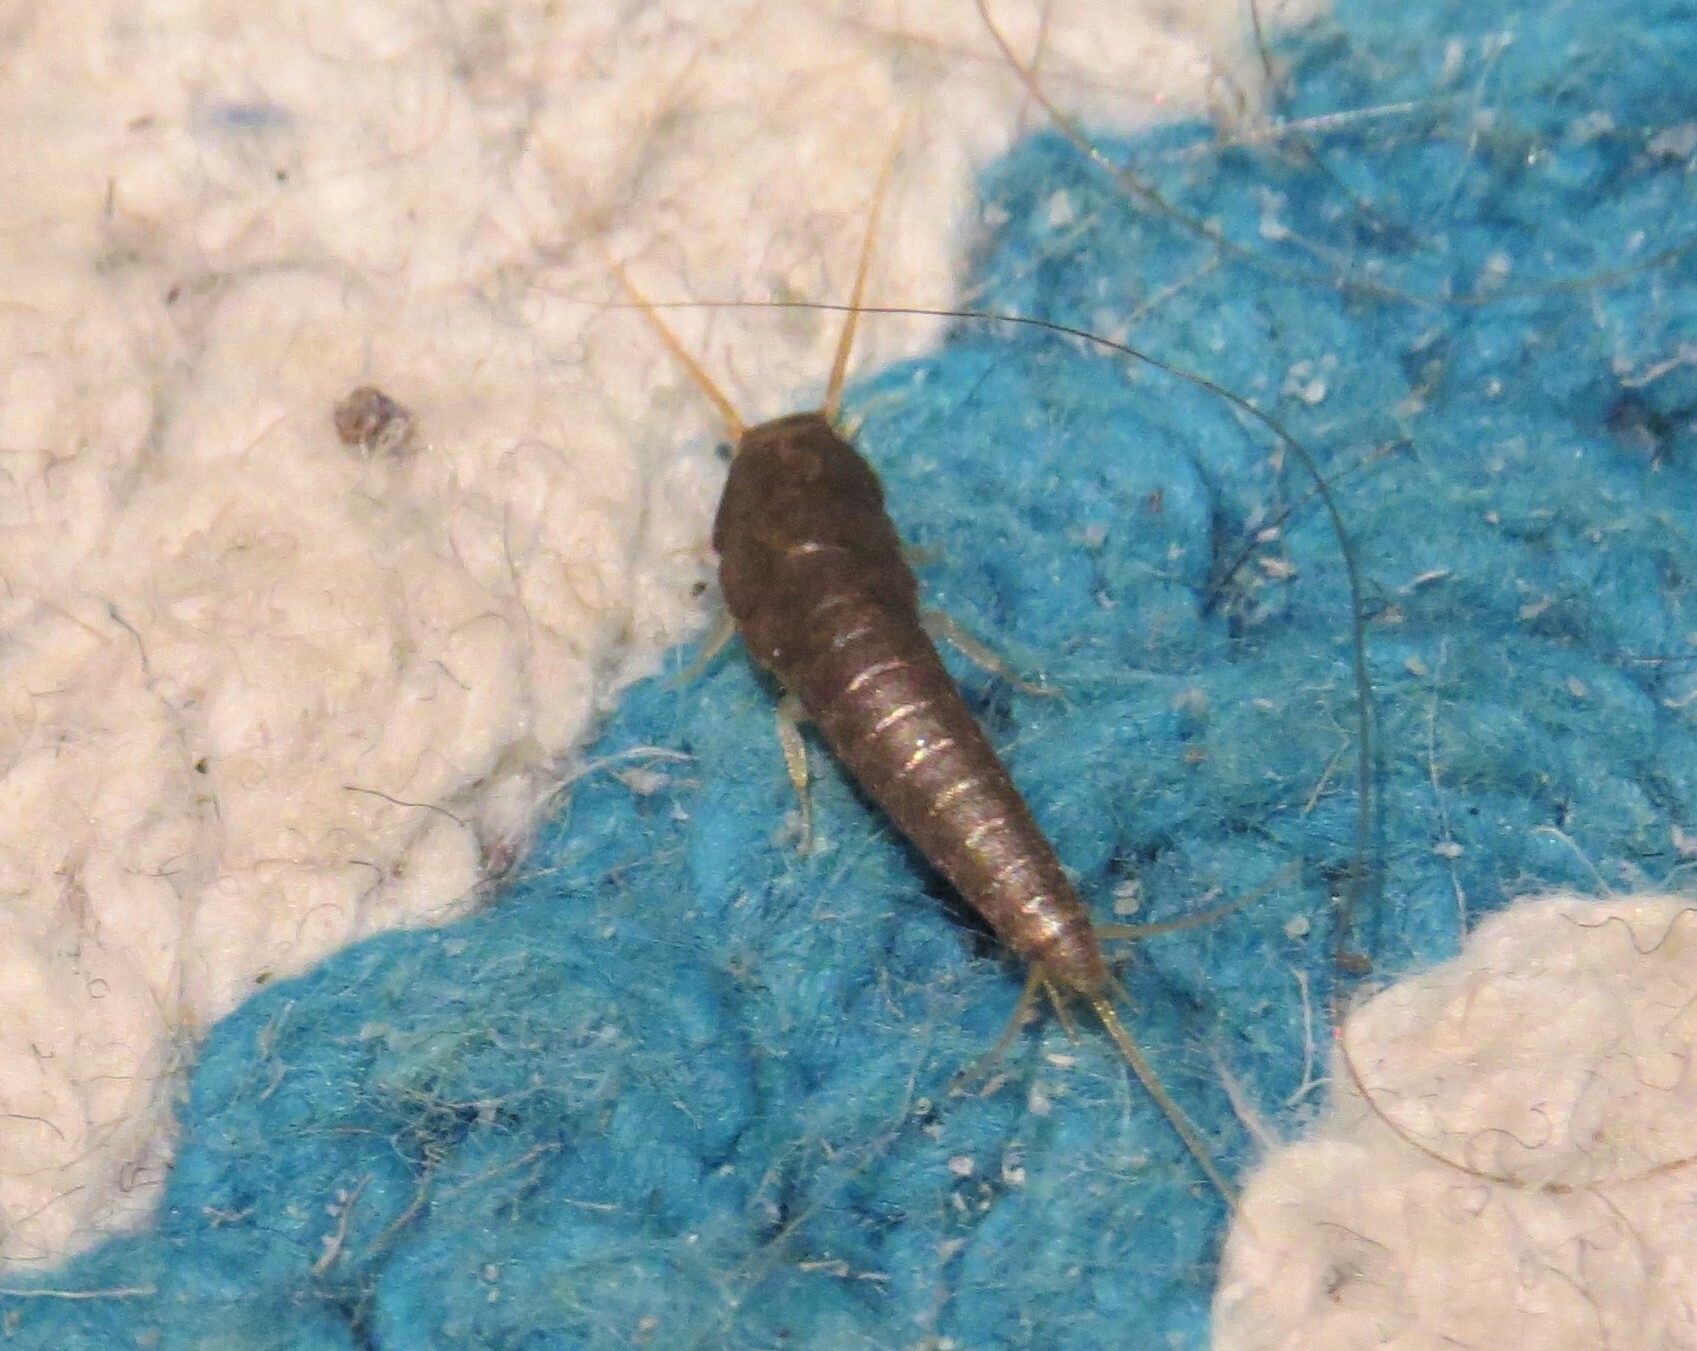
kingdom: Animalia
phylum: Arthropoda
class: Insecta
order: Zygentoma
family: Lepismatidae
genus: Lepisma
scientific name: Lepisma saccharinum
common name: Silverfish
